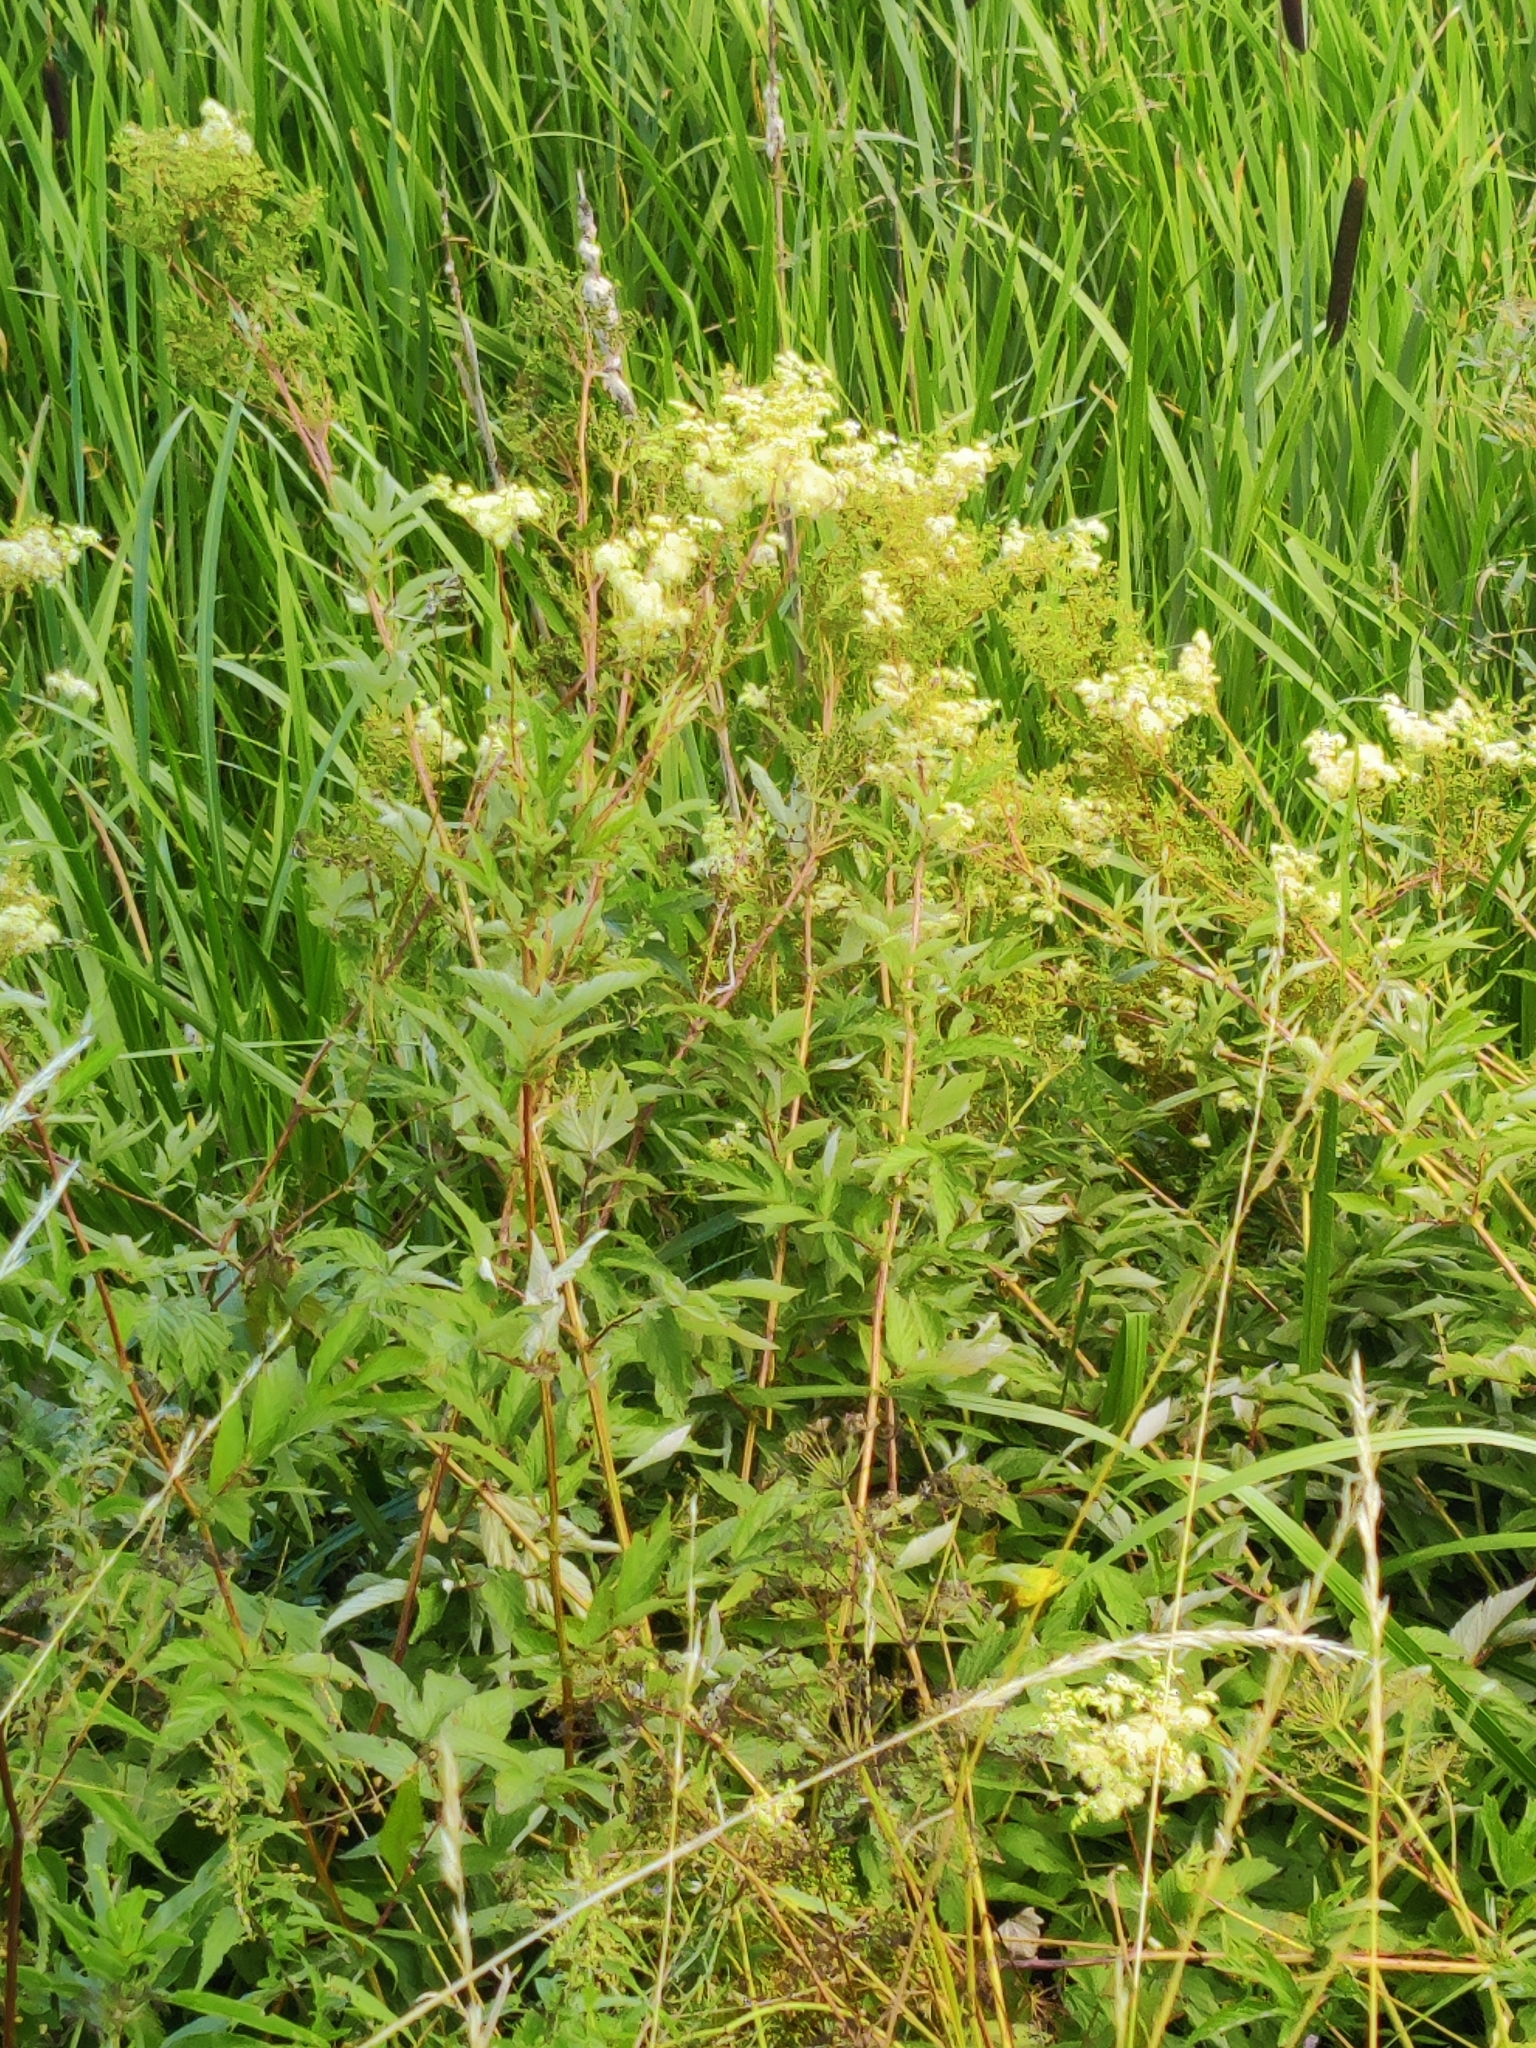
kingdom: Plantae
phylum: Tracheophyta
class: Magnoliopsida
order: Rosales
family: Rosaceae
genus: Filipendula
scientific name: Filipendula ulmaria
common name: Meadowsweet
